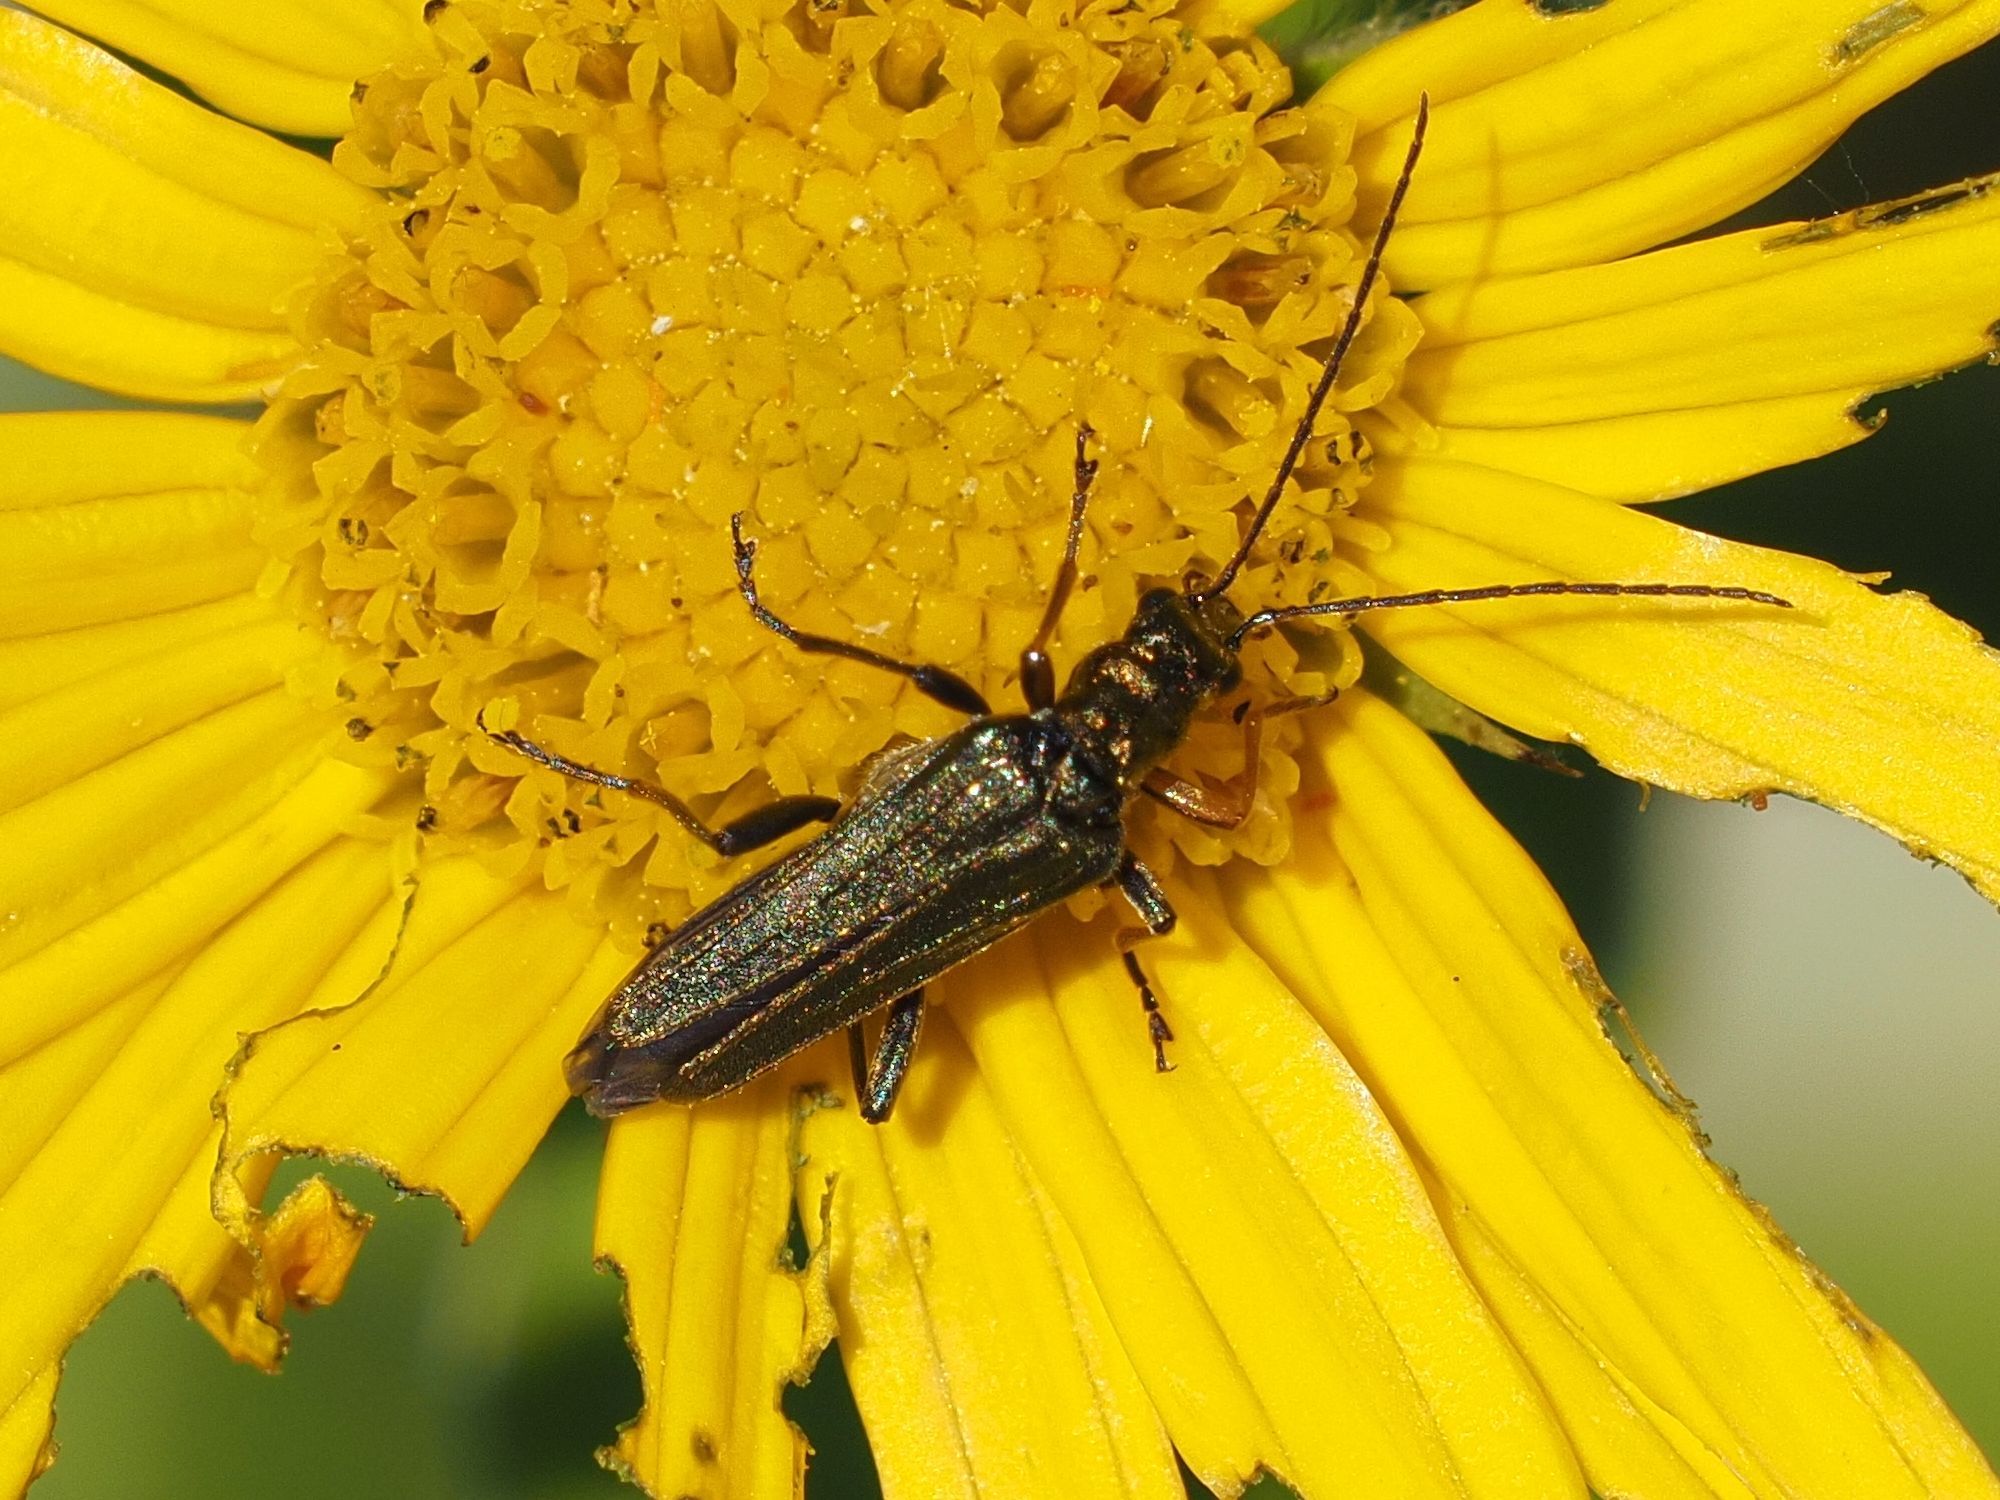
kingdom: Animalia
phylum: Arthropoda
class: Insecta
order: Coleoptera
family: Oedemeridae
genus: Oedemera
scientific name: Oedemera flavipes
